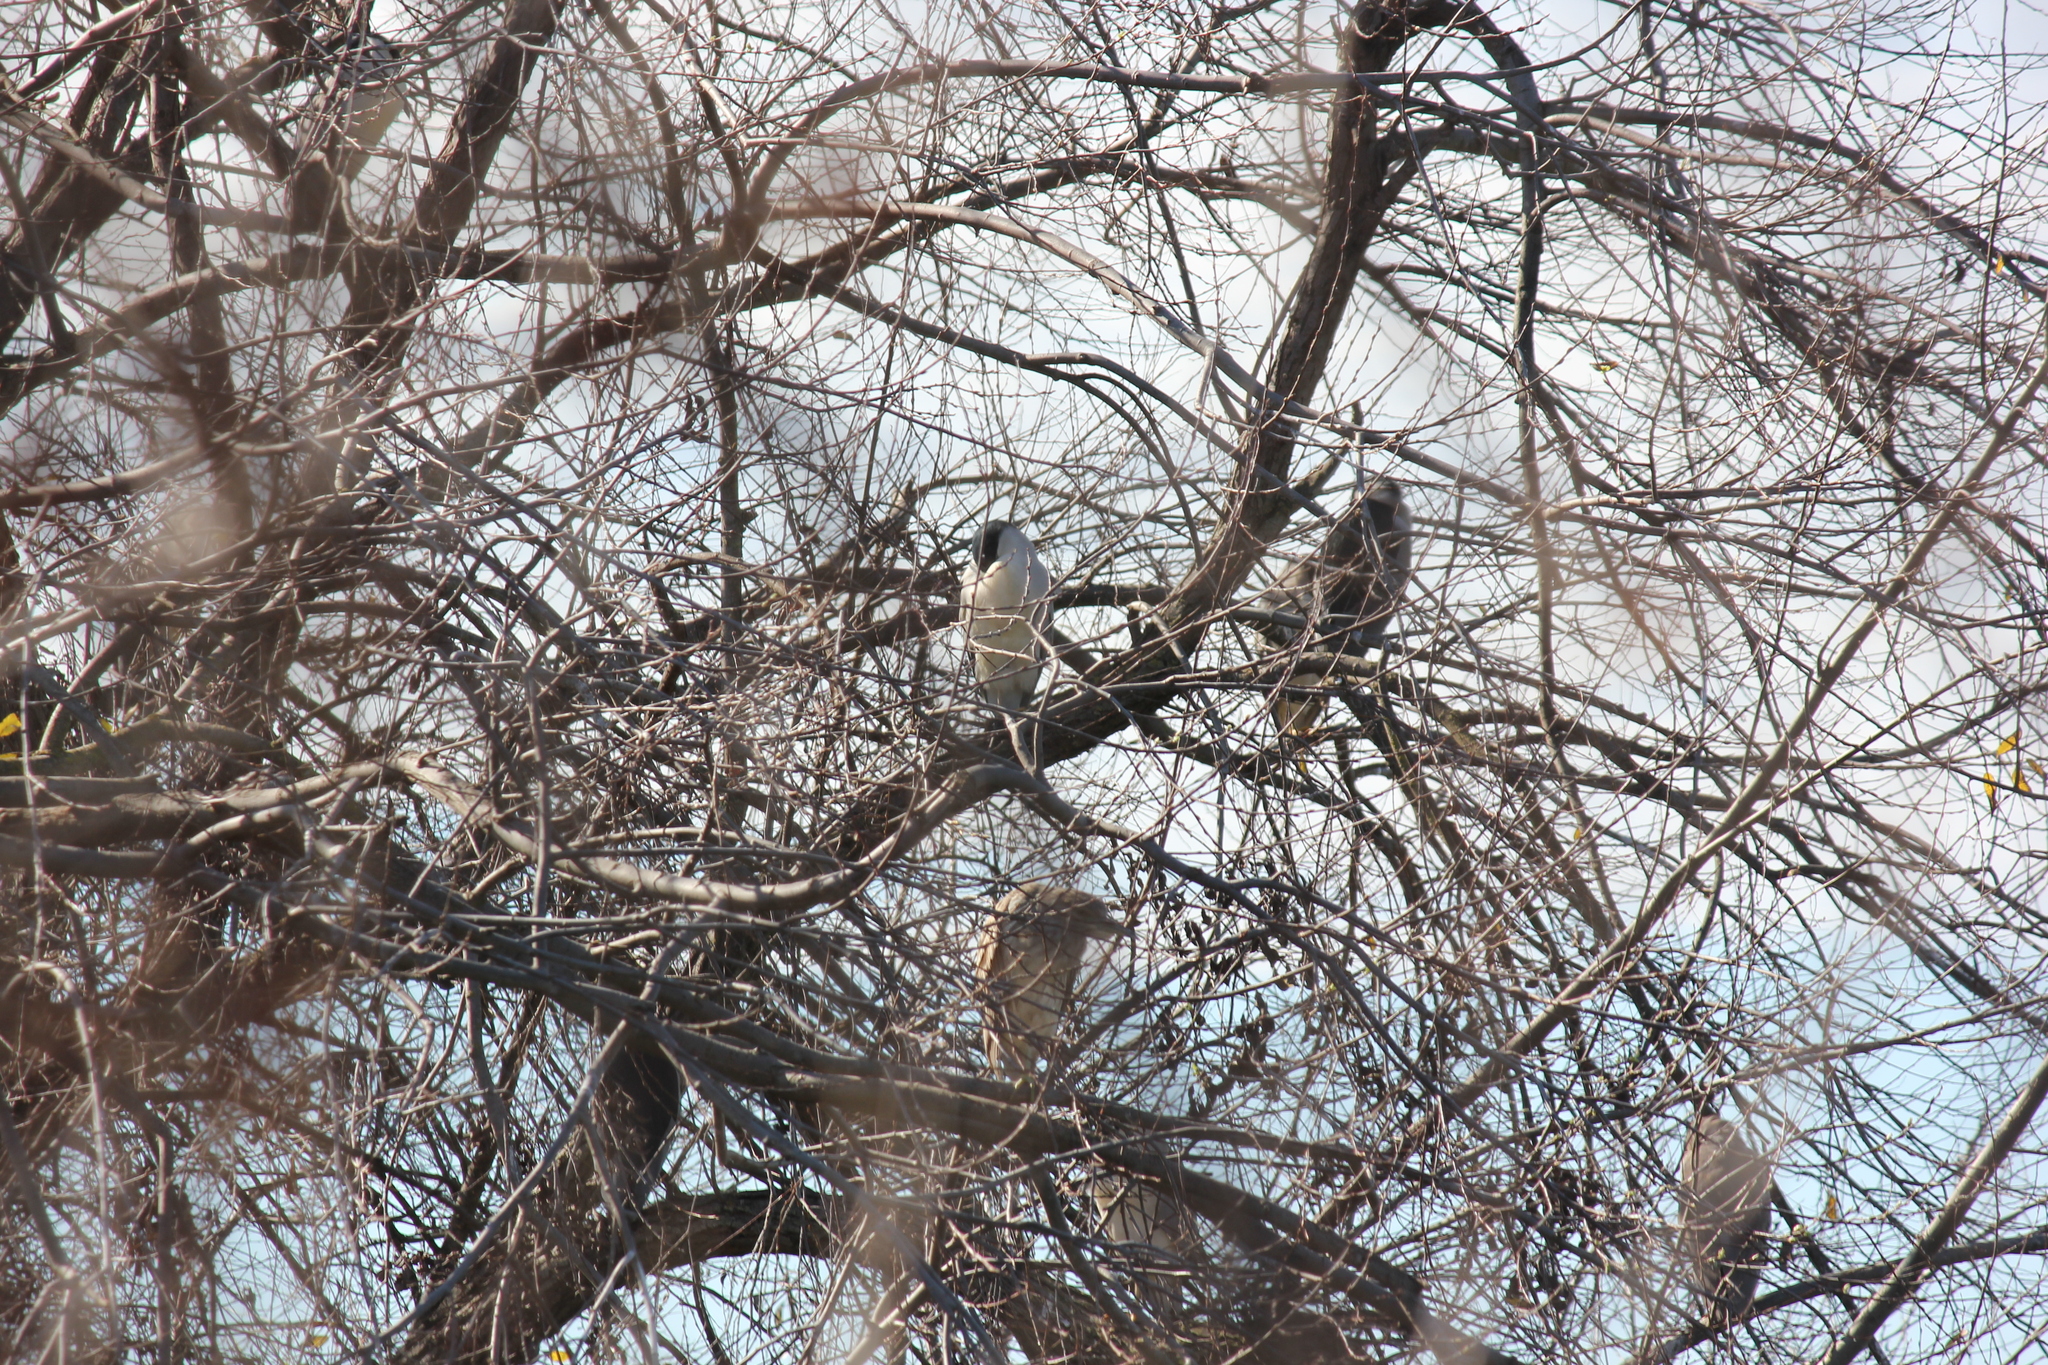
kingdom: Animalia
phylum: Chordata
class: Aves
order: Pelecaniformes
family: Ardeidae
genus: Nycticorax
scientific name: Nycticorax nycticorax
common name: Black-crowned night heron
